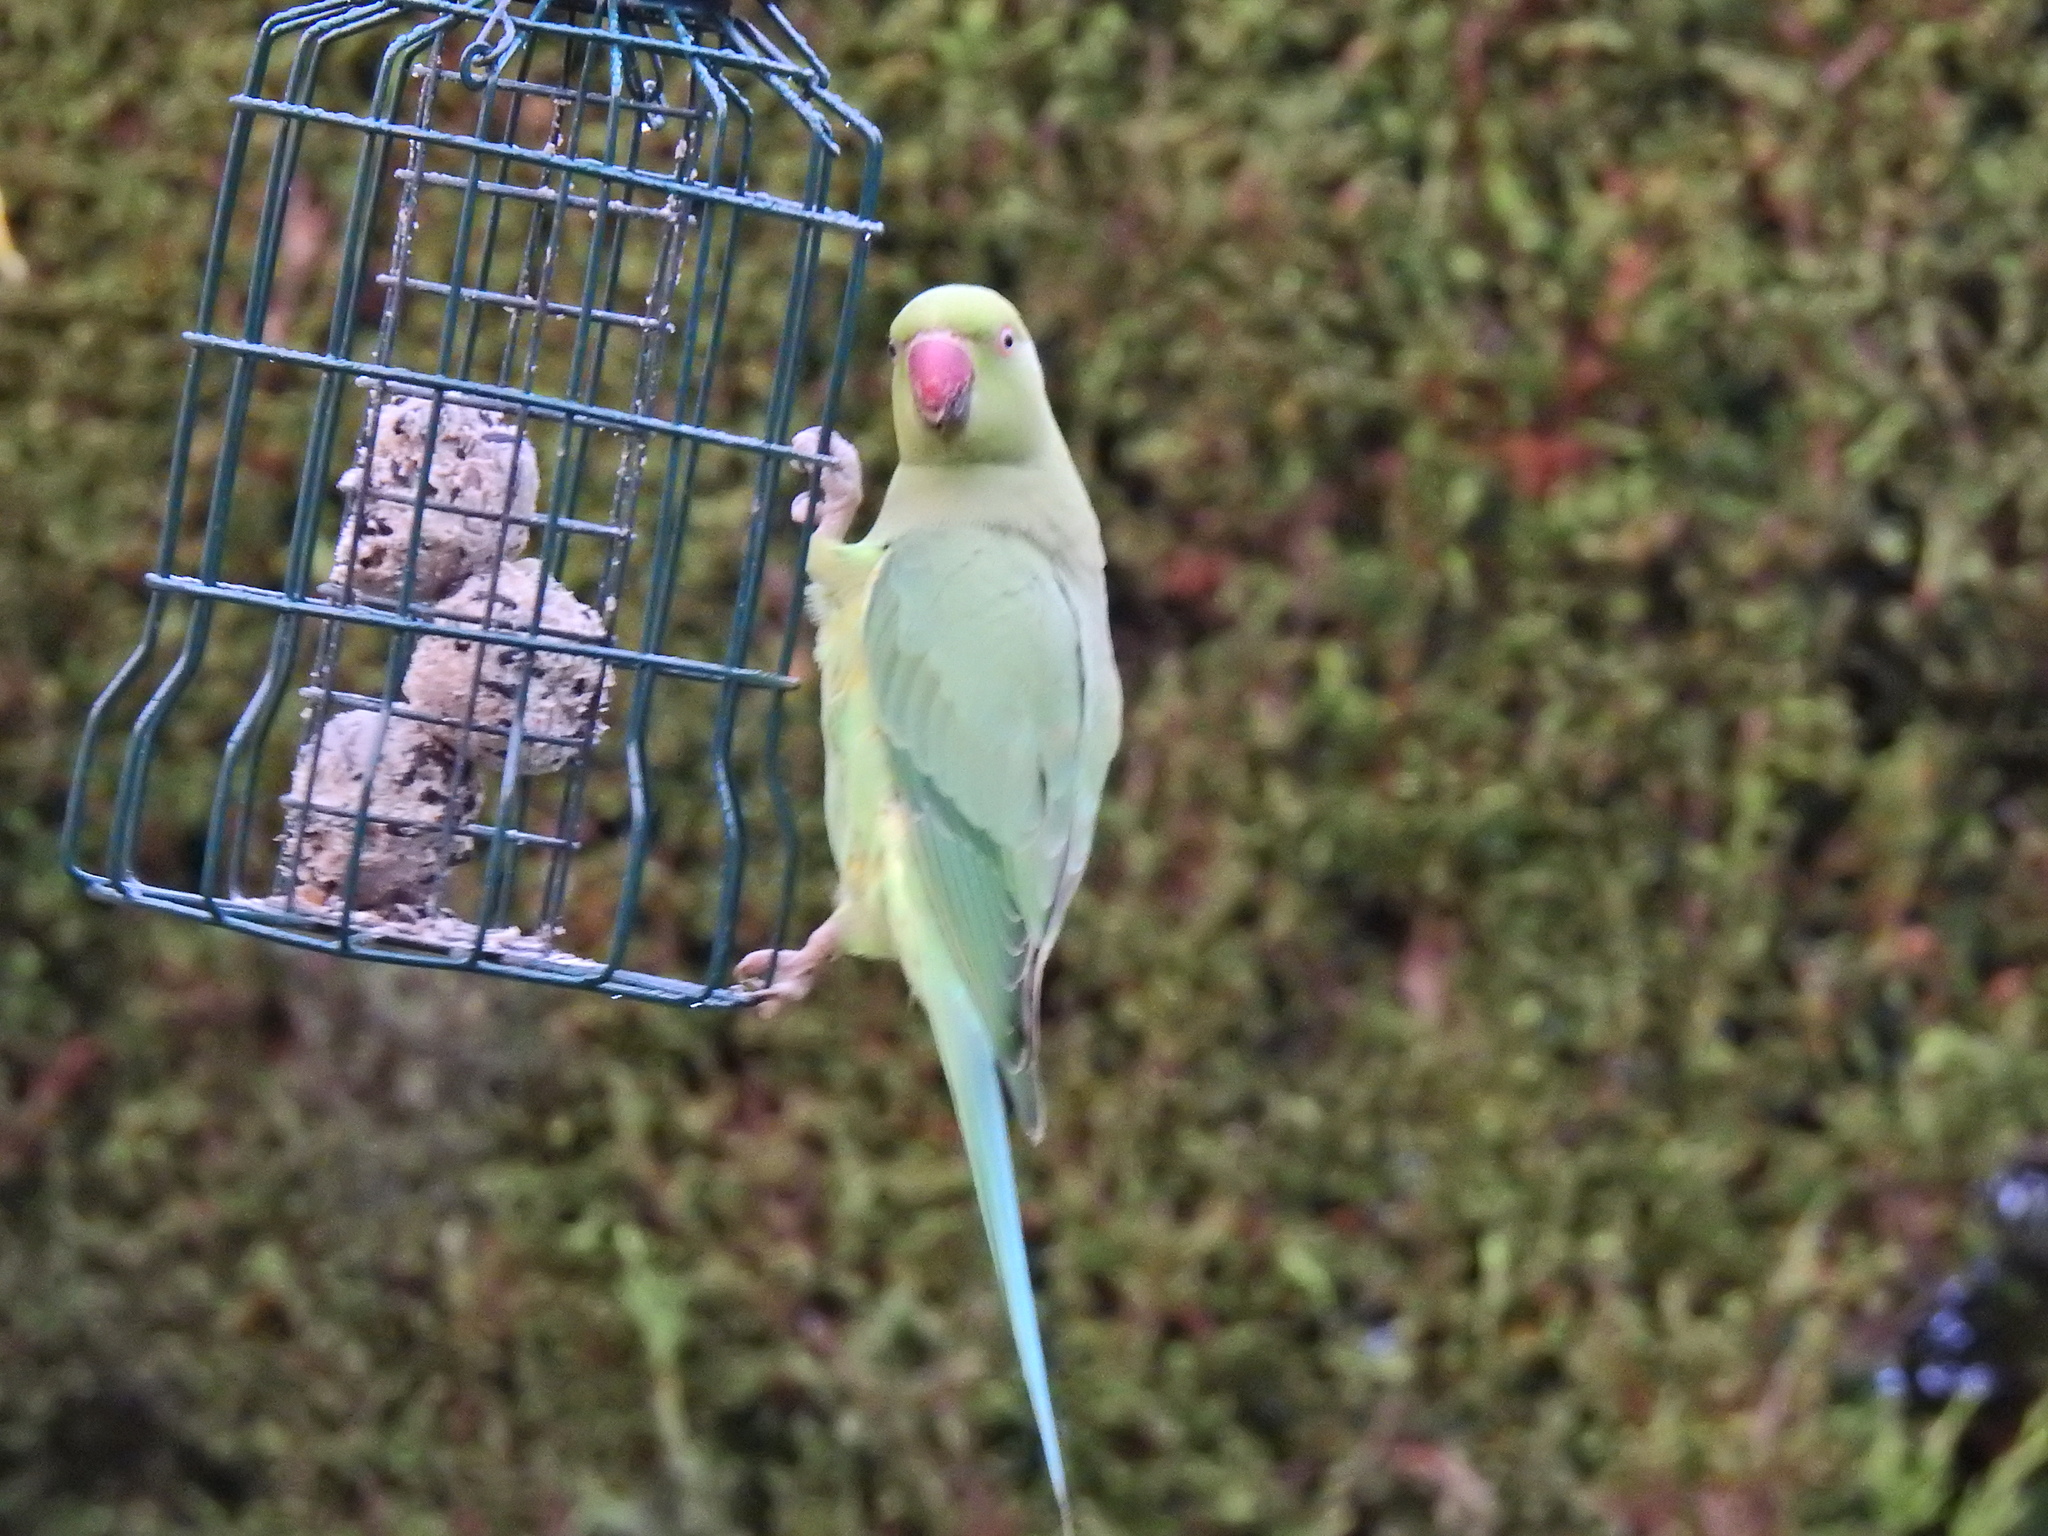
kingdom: Animalia
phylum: Chordata
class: Aves
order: Psittaciformes
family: Psittacidae
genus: Psittacula
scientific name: Psittacula krameri
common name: Rose-ringed parakeet
